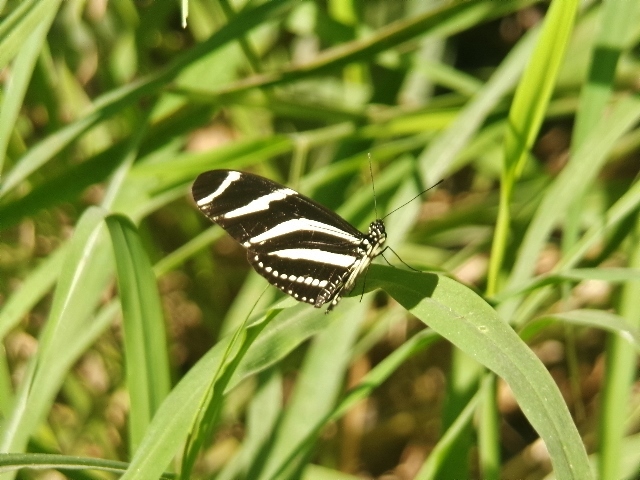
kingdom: Animalia
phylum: Arthropoda
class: Insecta
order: Lepidoptera
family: Nymphalidae
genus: Heliconius
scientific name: Heliconius charithonia
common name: Zebra long wing
